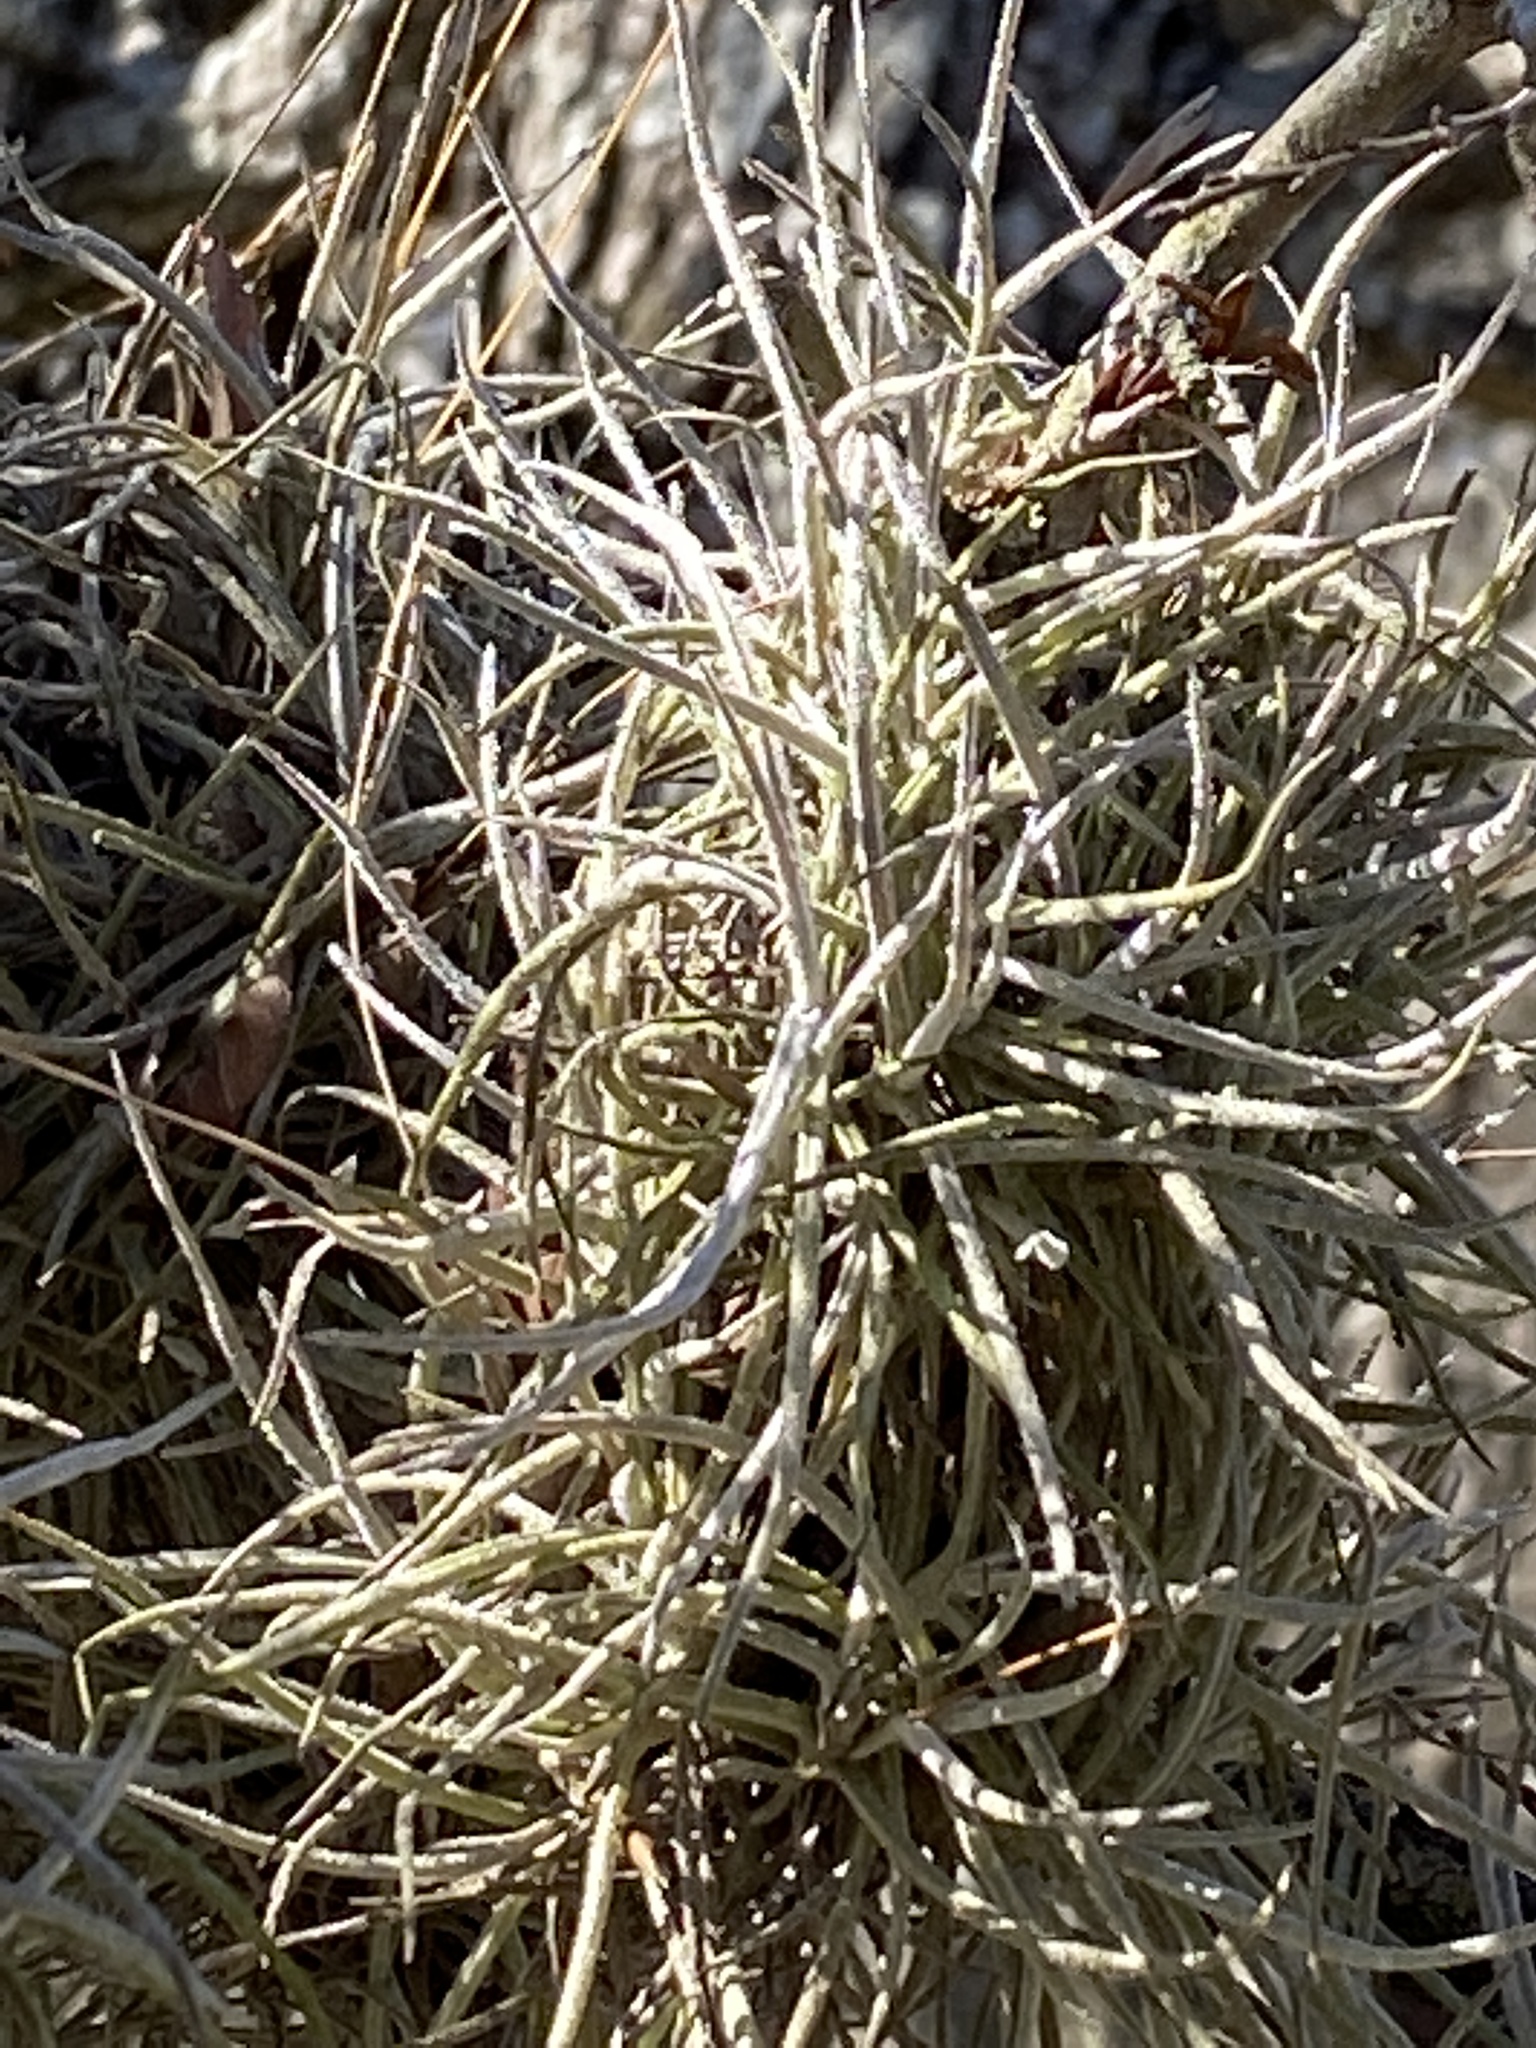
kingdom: Plantae
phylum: Tracheophyta
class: Liliopsida
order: Poales
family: Bromeliaceae
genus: Tillandsia
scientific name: Tillandsia recurvata
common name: Small ballmoss
